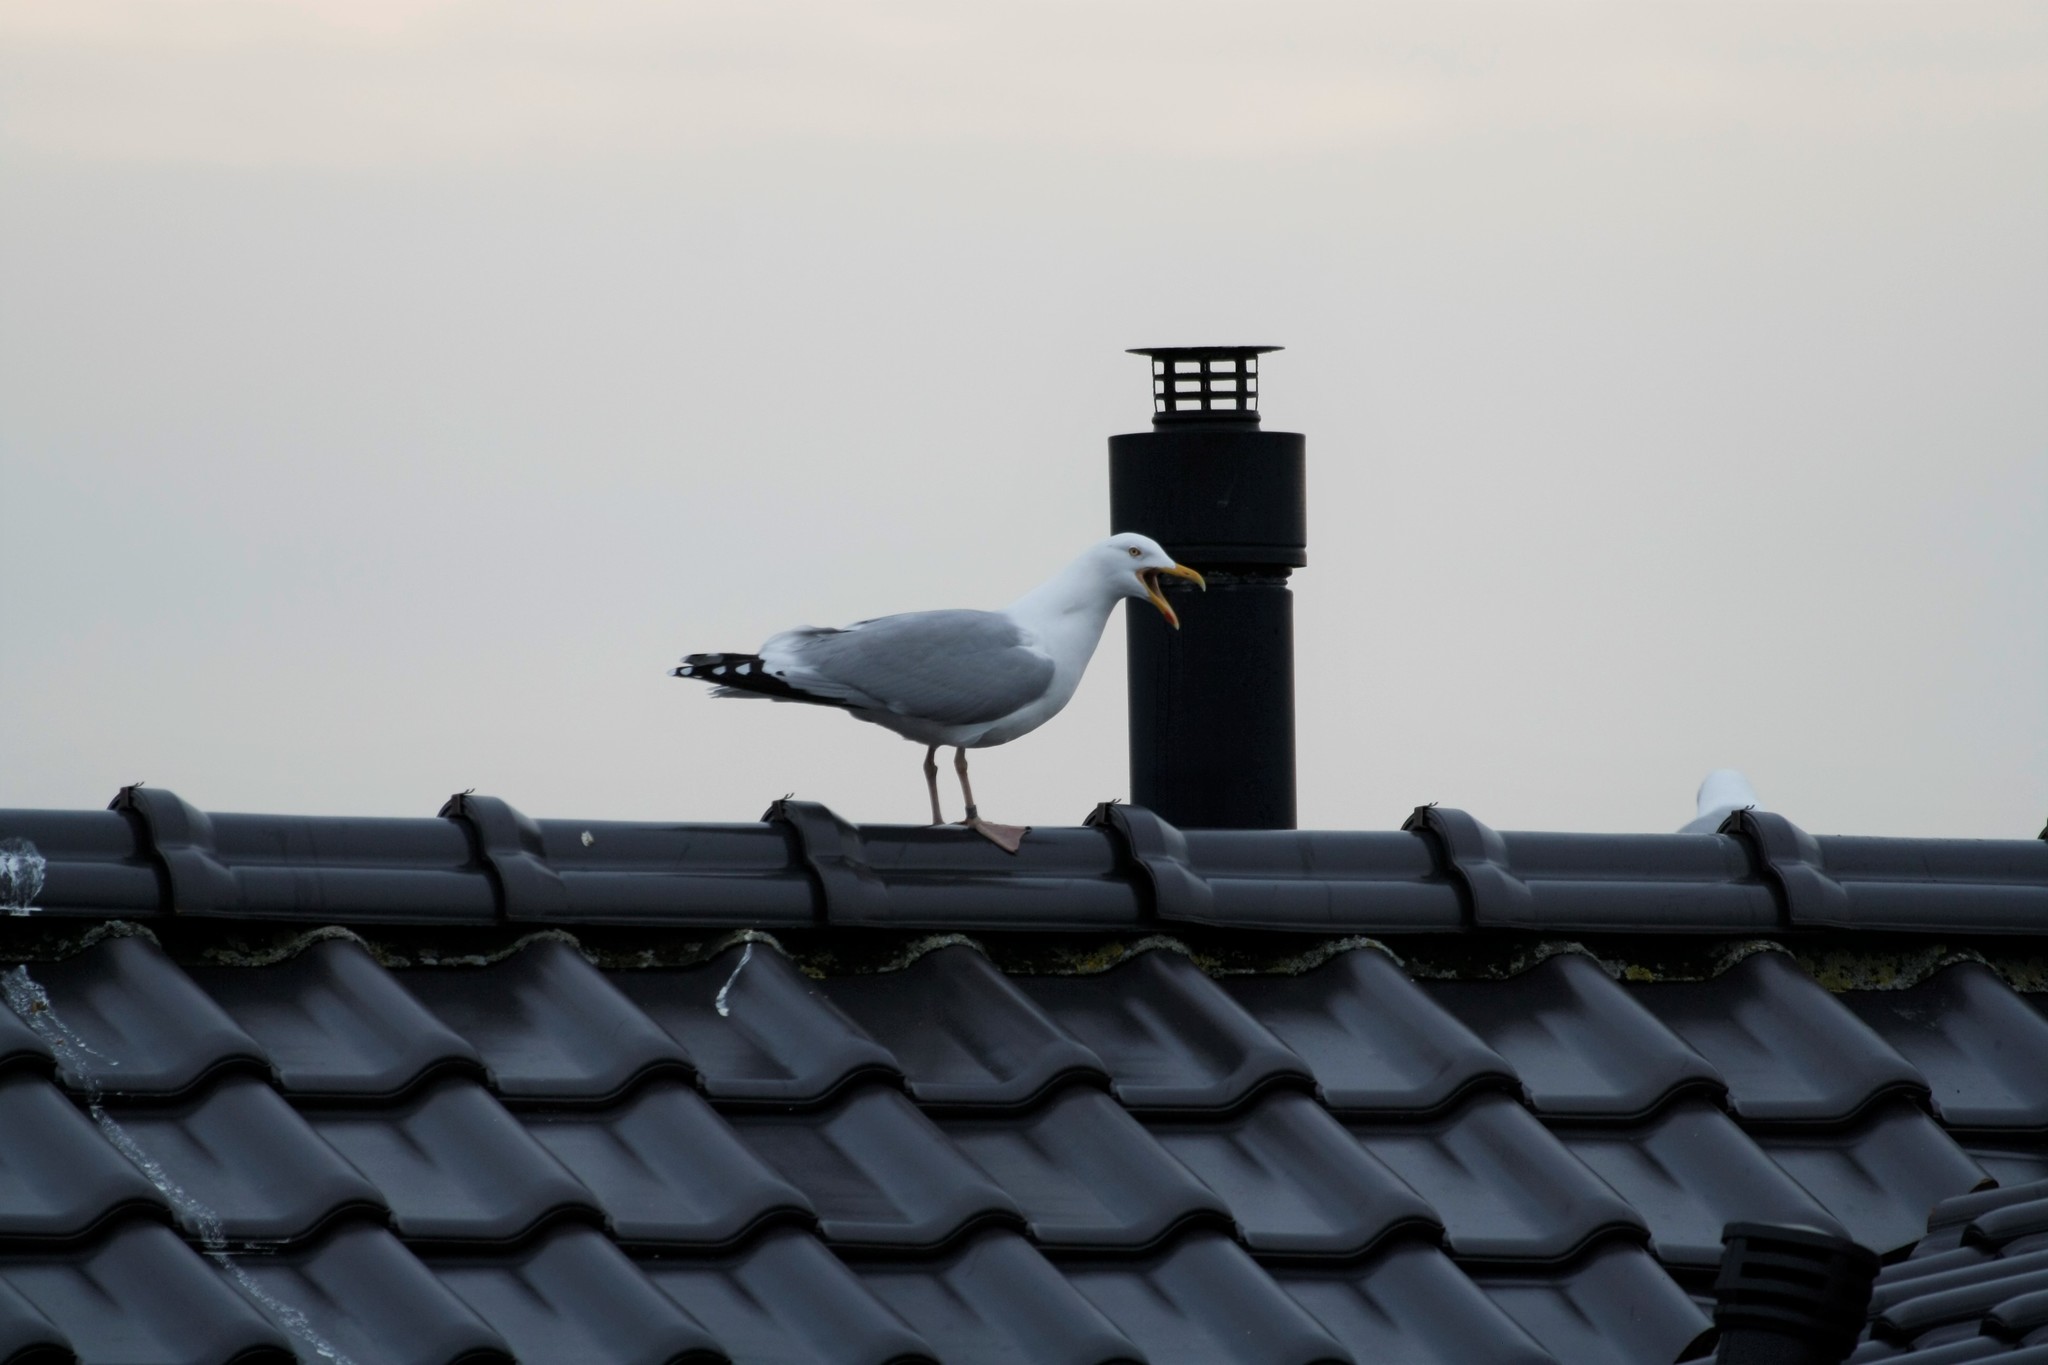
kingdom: Animalia
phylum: Chordata
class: Aves
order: Charadriiformes
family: Laridae
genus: Larus
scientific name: Larus argentatus
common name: Herring gull
